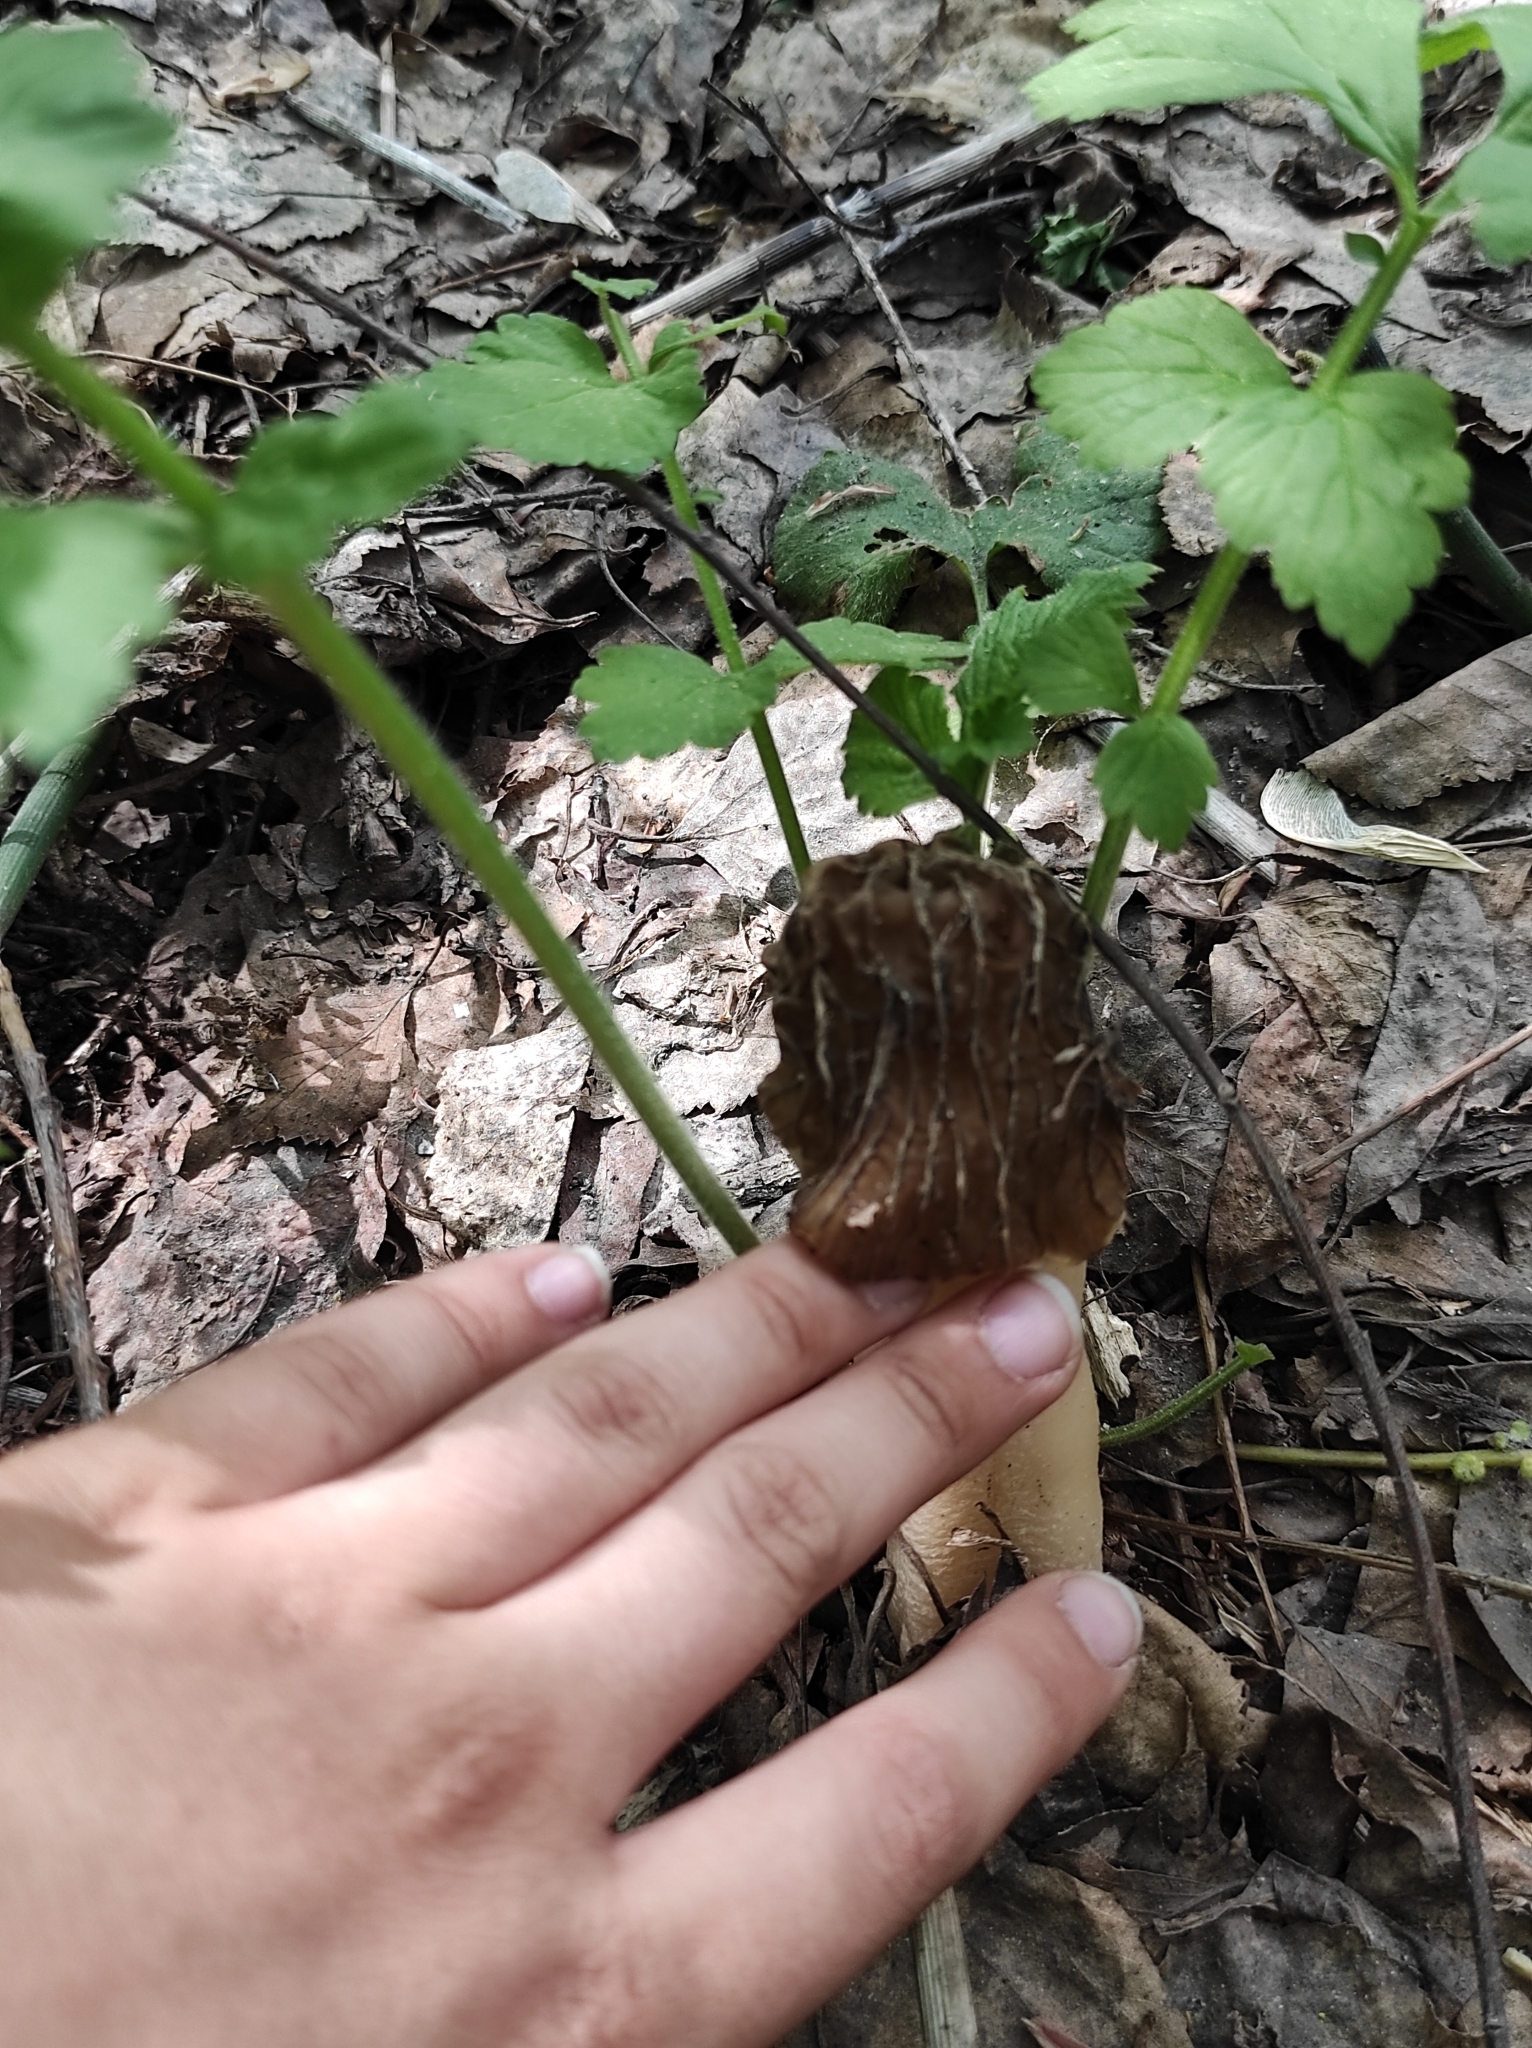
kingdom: Fungi
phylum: Ascomycota
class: Pezizomycetes
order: Pezizales
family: Morchellaceae
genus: Verpa
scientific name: Verpa bohemica
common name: Wrinkled thimble morel
